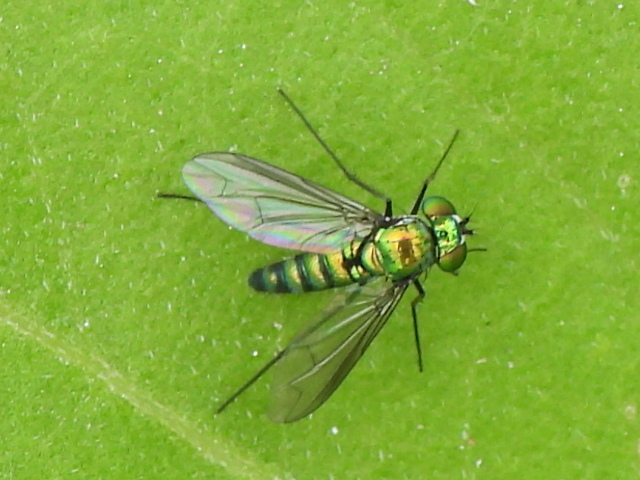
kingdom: Animalia
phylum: Arthropoda
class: Insecta
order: Diptera
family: Dolichopodidae
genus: Condylostylus
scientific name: Condylostylus longicornis
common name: Long-legged fly
